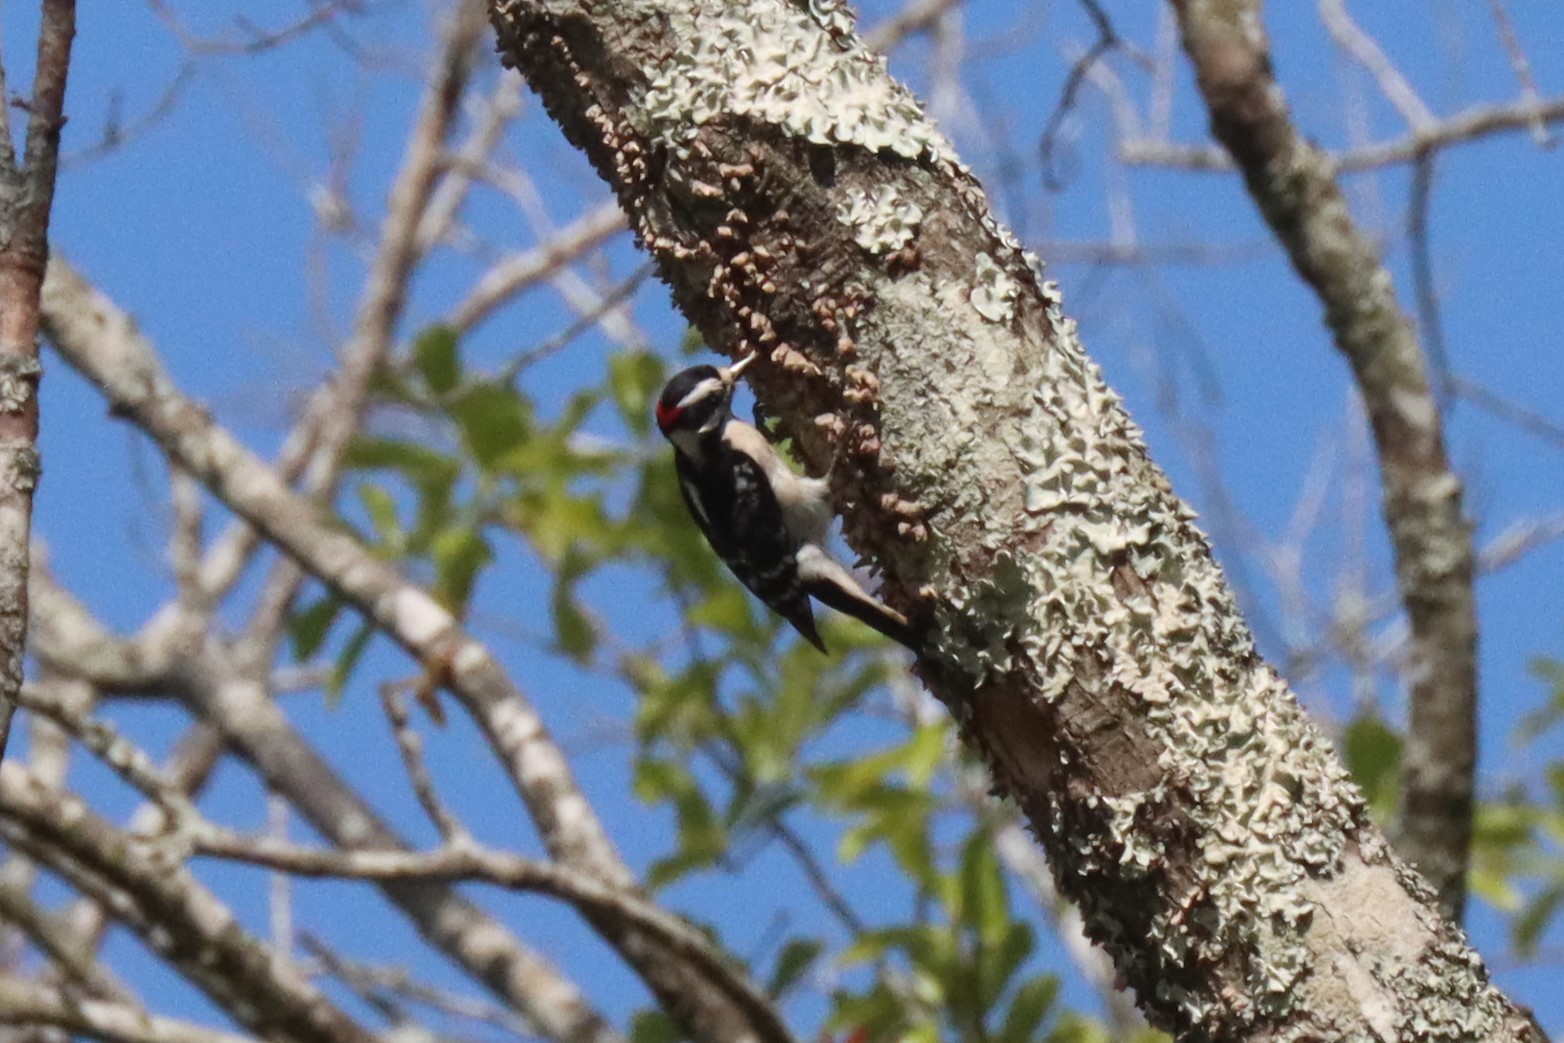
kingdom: Animalia
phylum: Chordata
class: Aves
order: Piciformes
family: Picidae
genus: Dryobates
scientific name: Dryobates pubescens
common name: Downy woodpecker
